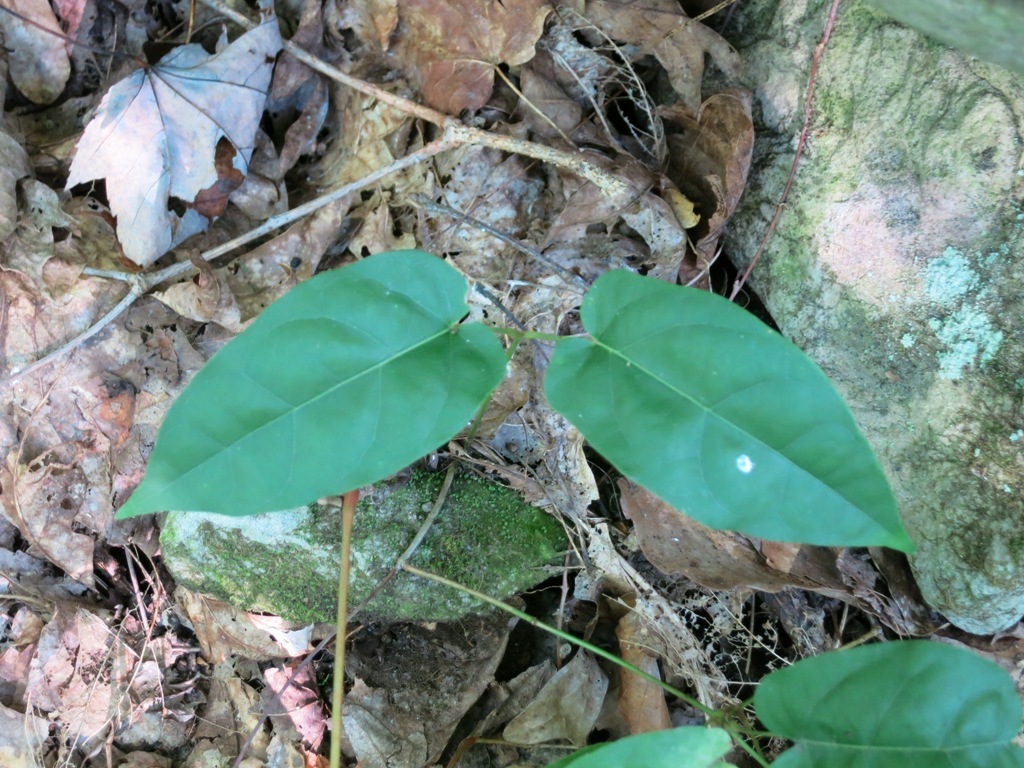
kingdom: Plantae
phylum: Tracheophyta
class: Magnoliopsida
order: Lamiales
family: Bignoniaceae
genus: Bignonia
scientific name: Bignonia capreolata
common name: Crossvine
